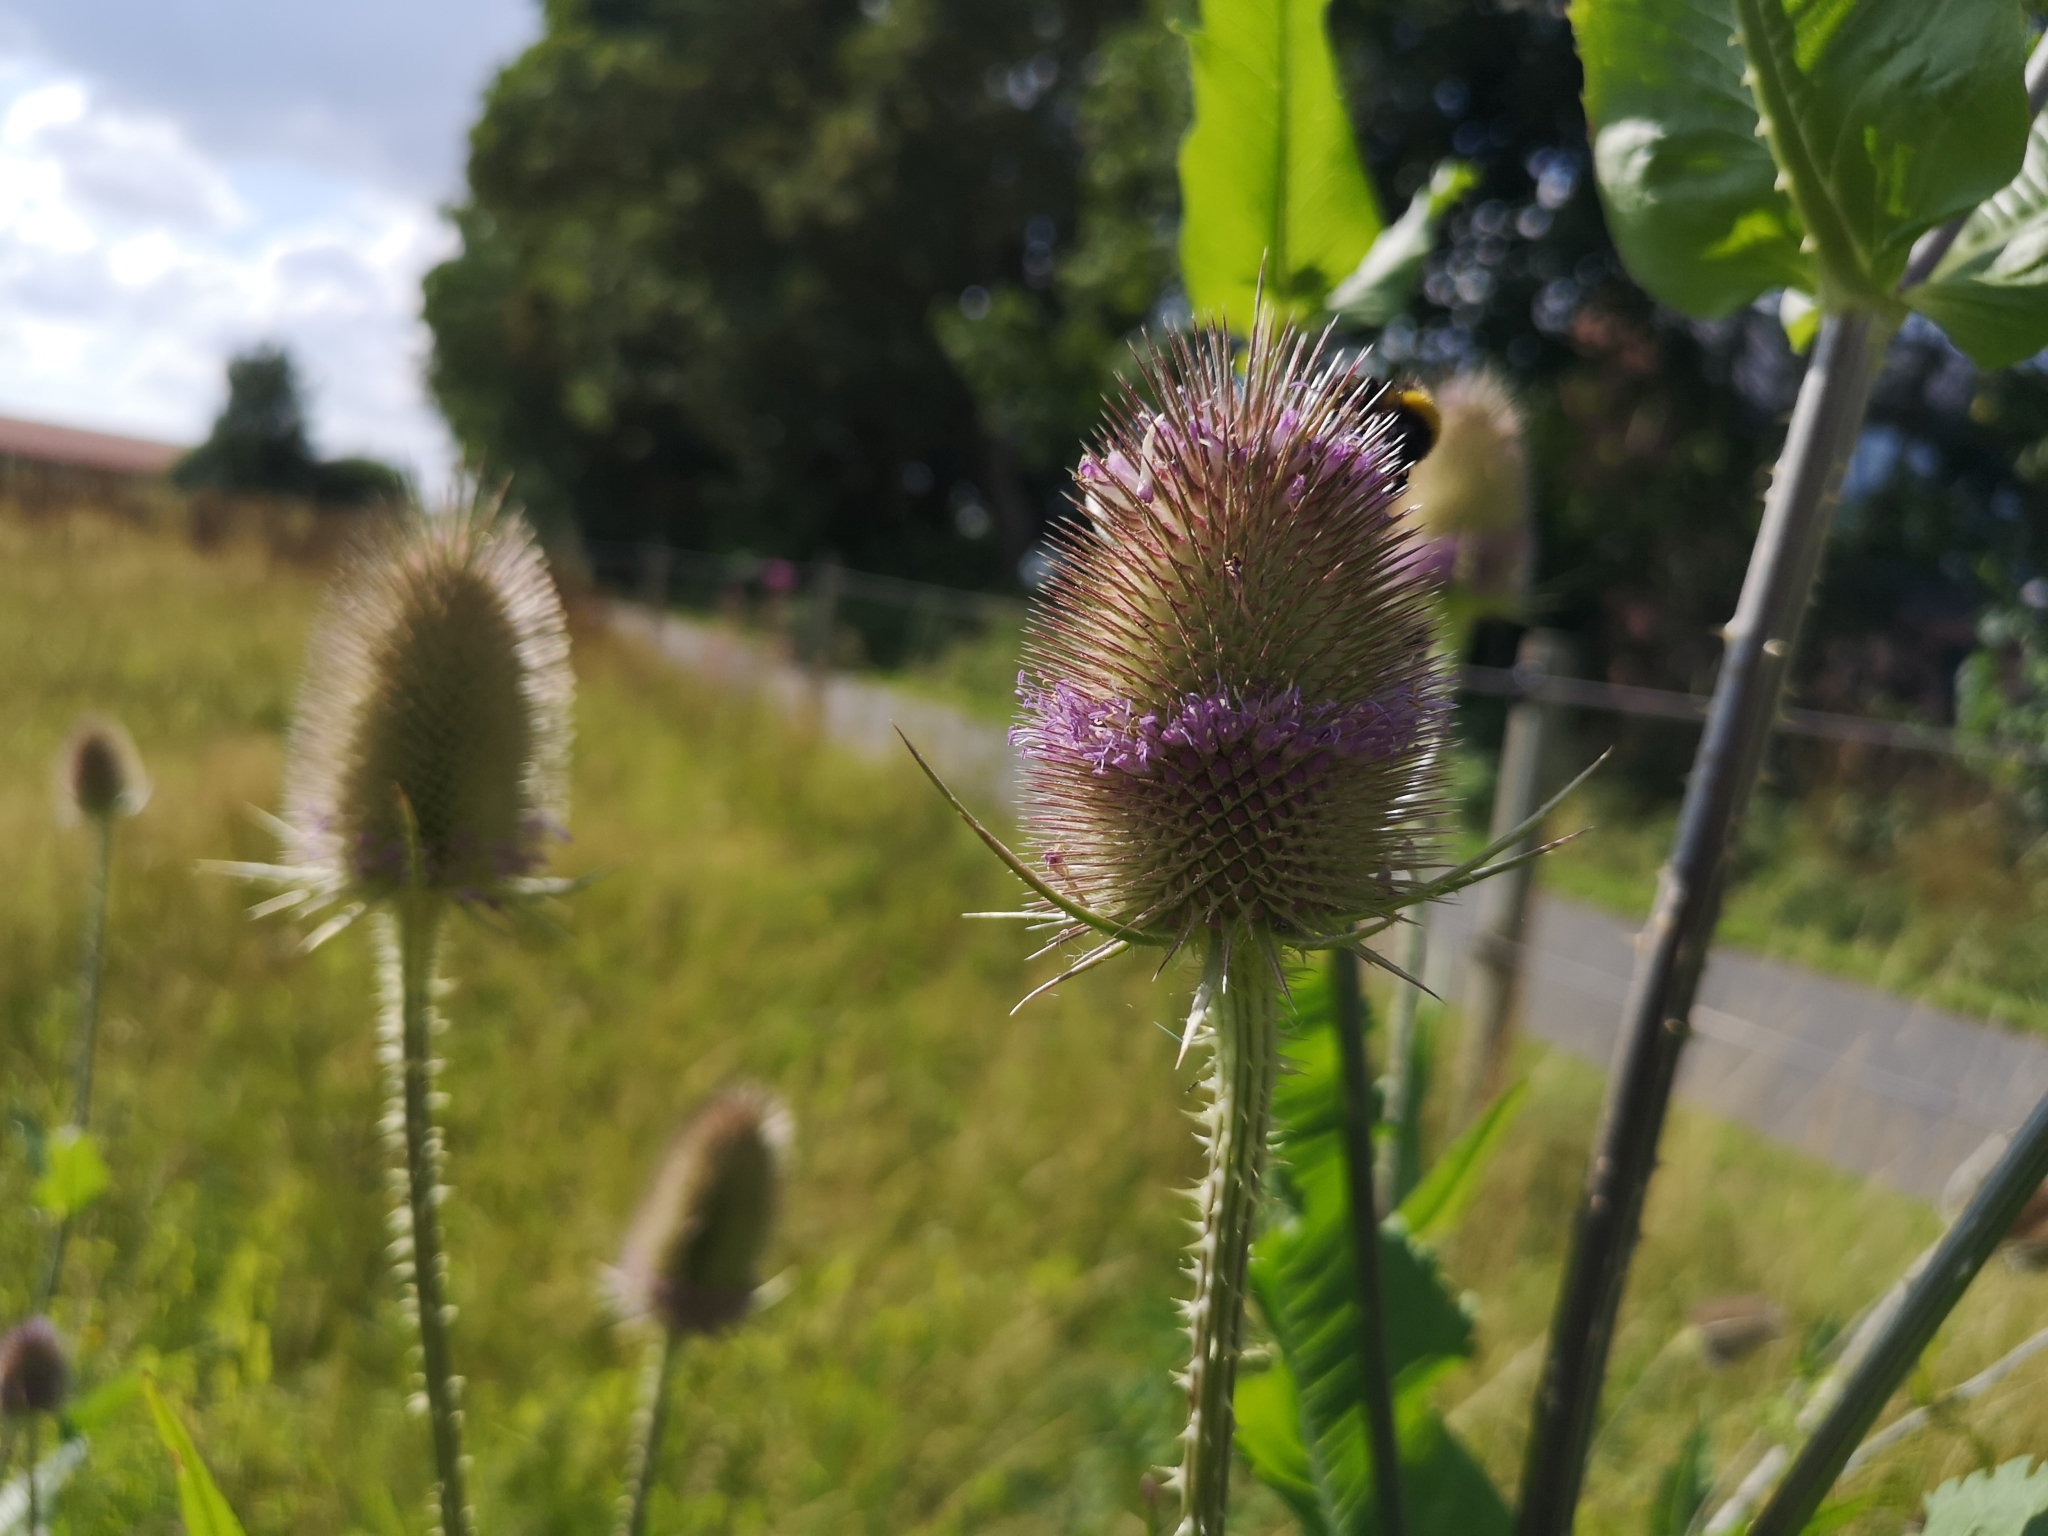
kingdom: Plantae
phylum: Tracheophyta
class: Magnoliopsida
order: Dipsacales
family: Caprifoliaceae
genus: Dipsacus
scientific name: Dipsacus fullonum
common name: Teasel
